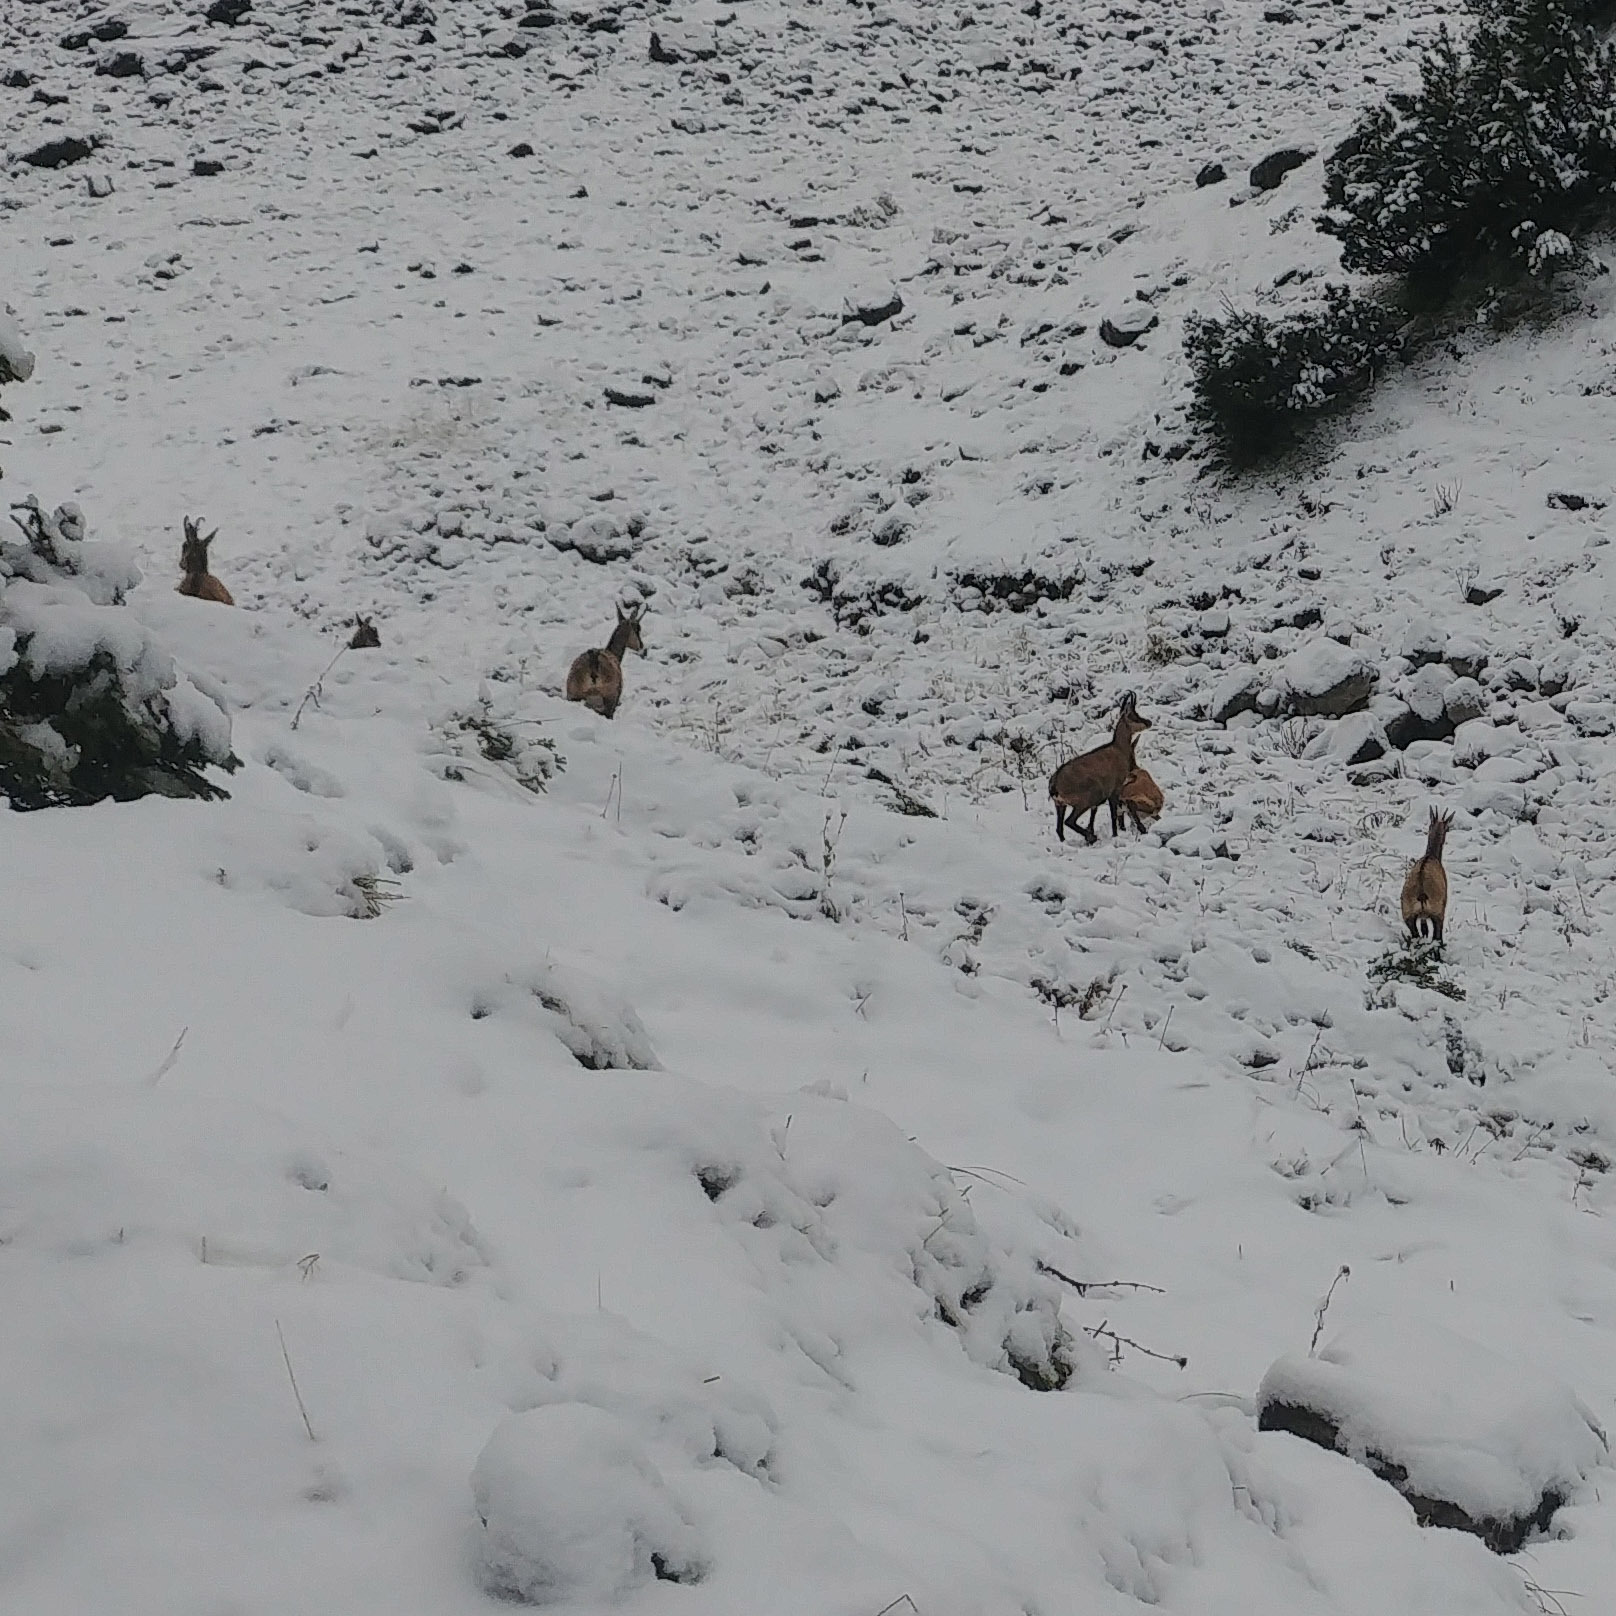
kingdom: Animalia
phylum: Chordata
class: Mammalia
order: Artiodactyla
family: Bovidae
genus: Rupicapra
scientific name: Rupicapra rupicapra
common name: Chamois
